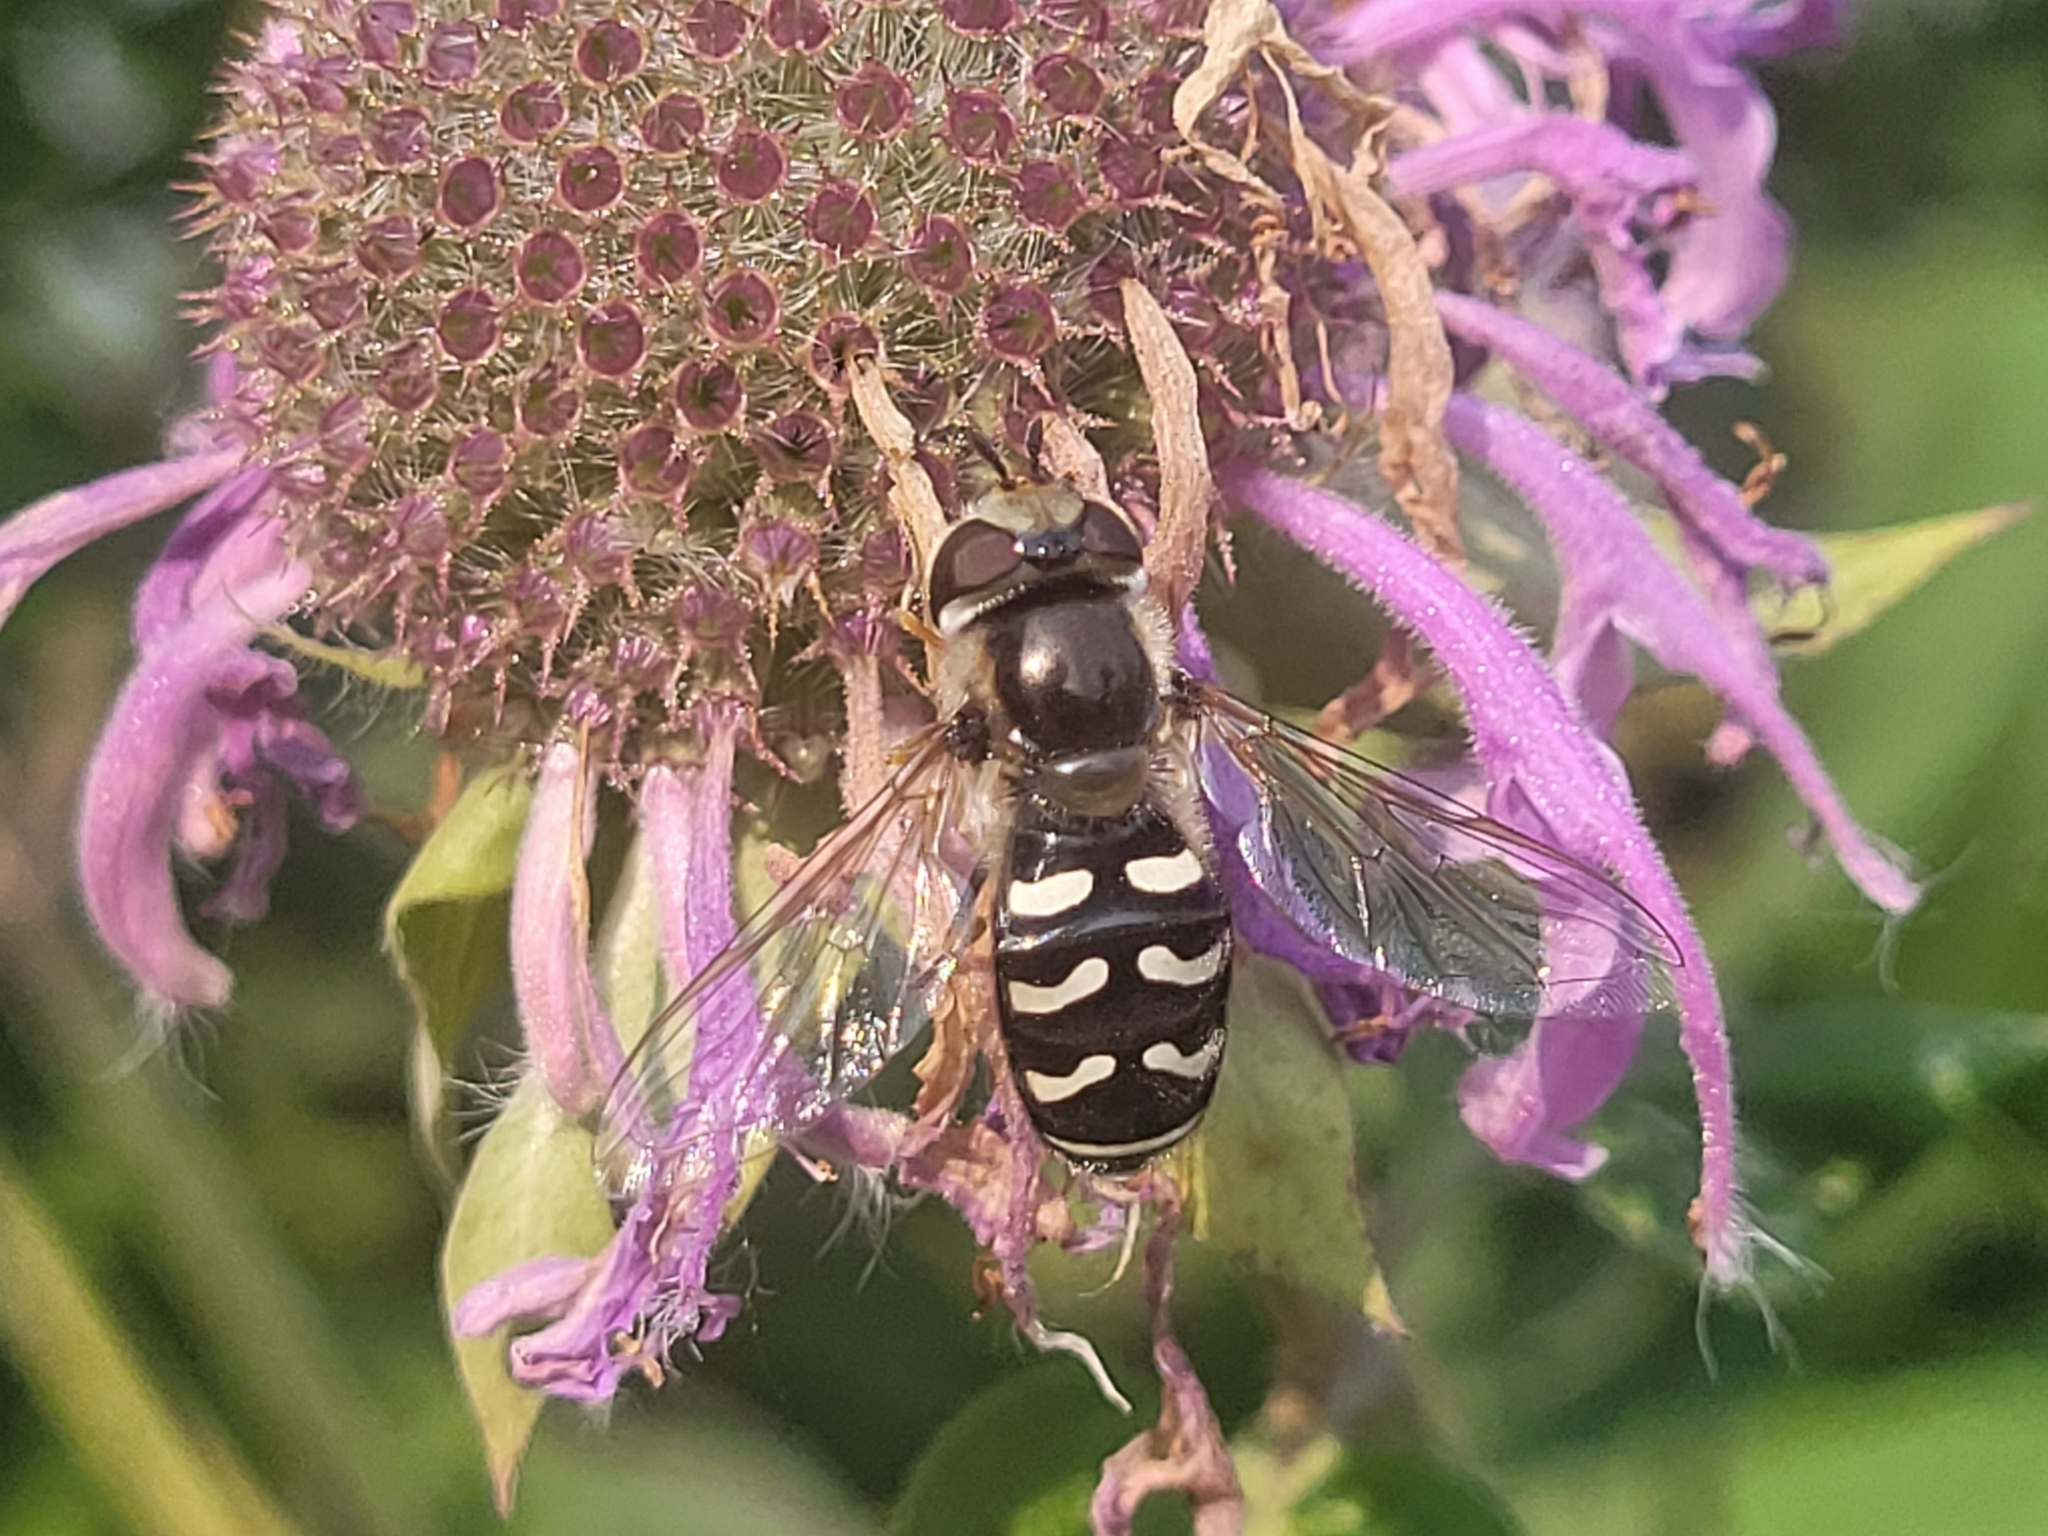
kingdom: Animalia
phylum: Arthropoda
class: Insecta
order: Diptera
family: Syrphidae
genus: Scaeva
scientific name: Scaeva affinis
